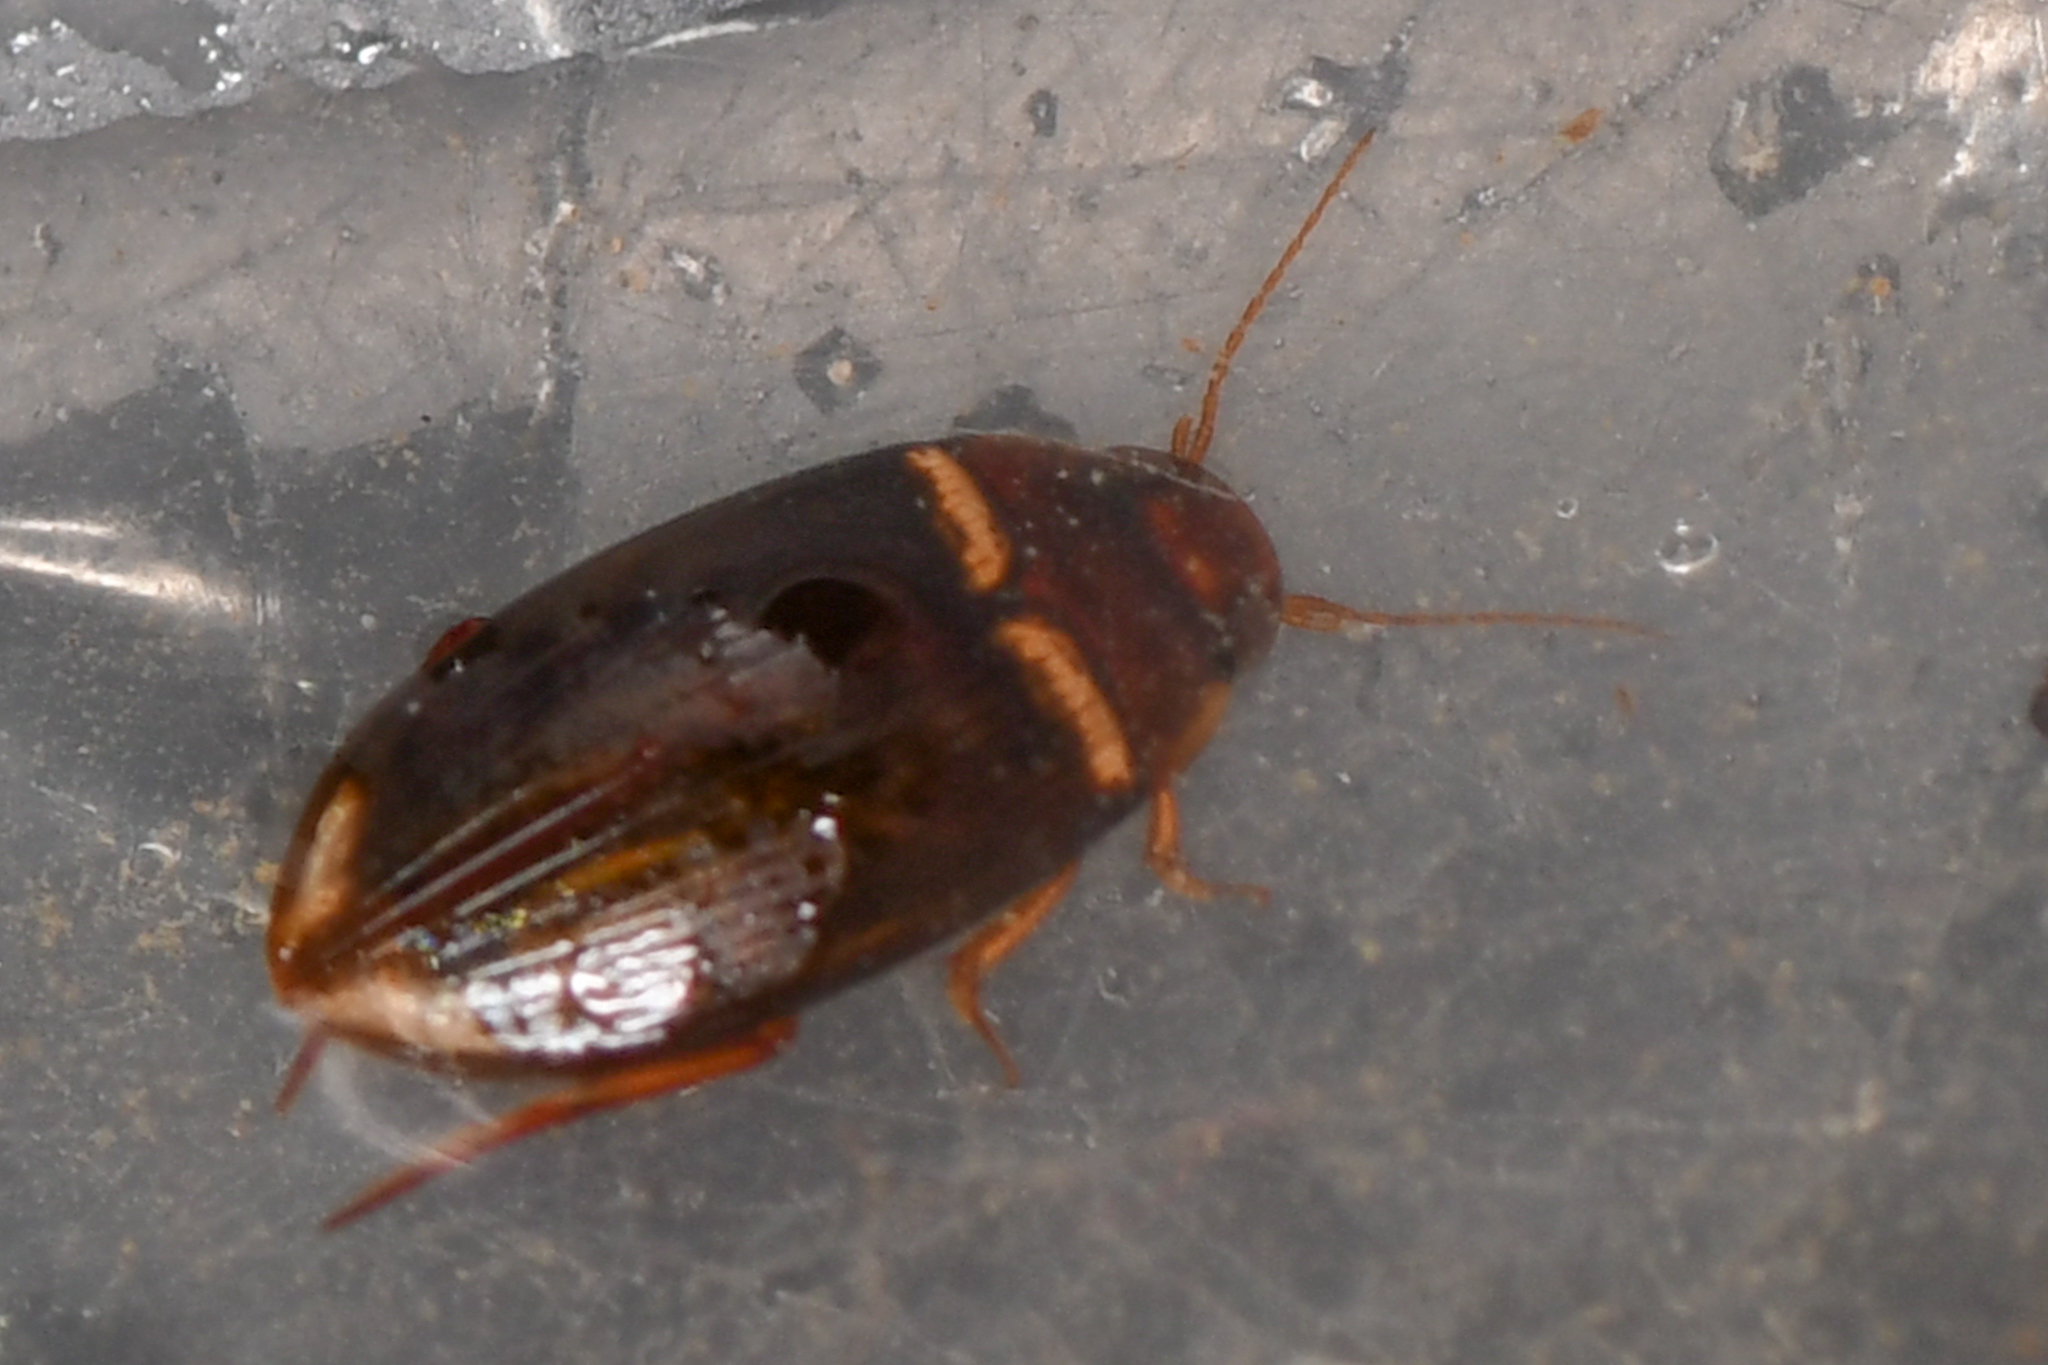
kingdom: Animalia
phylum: Arthropoda
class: Insecta
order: Coleoptera
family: Dytiscidae
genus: Copelatus
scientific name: Copelatus
